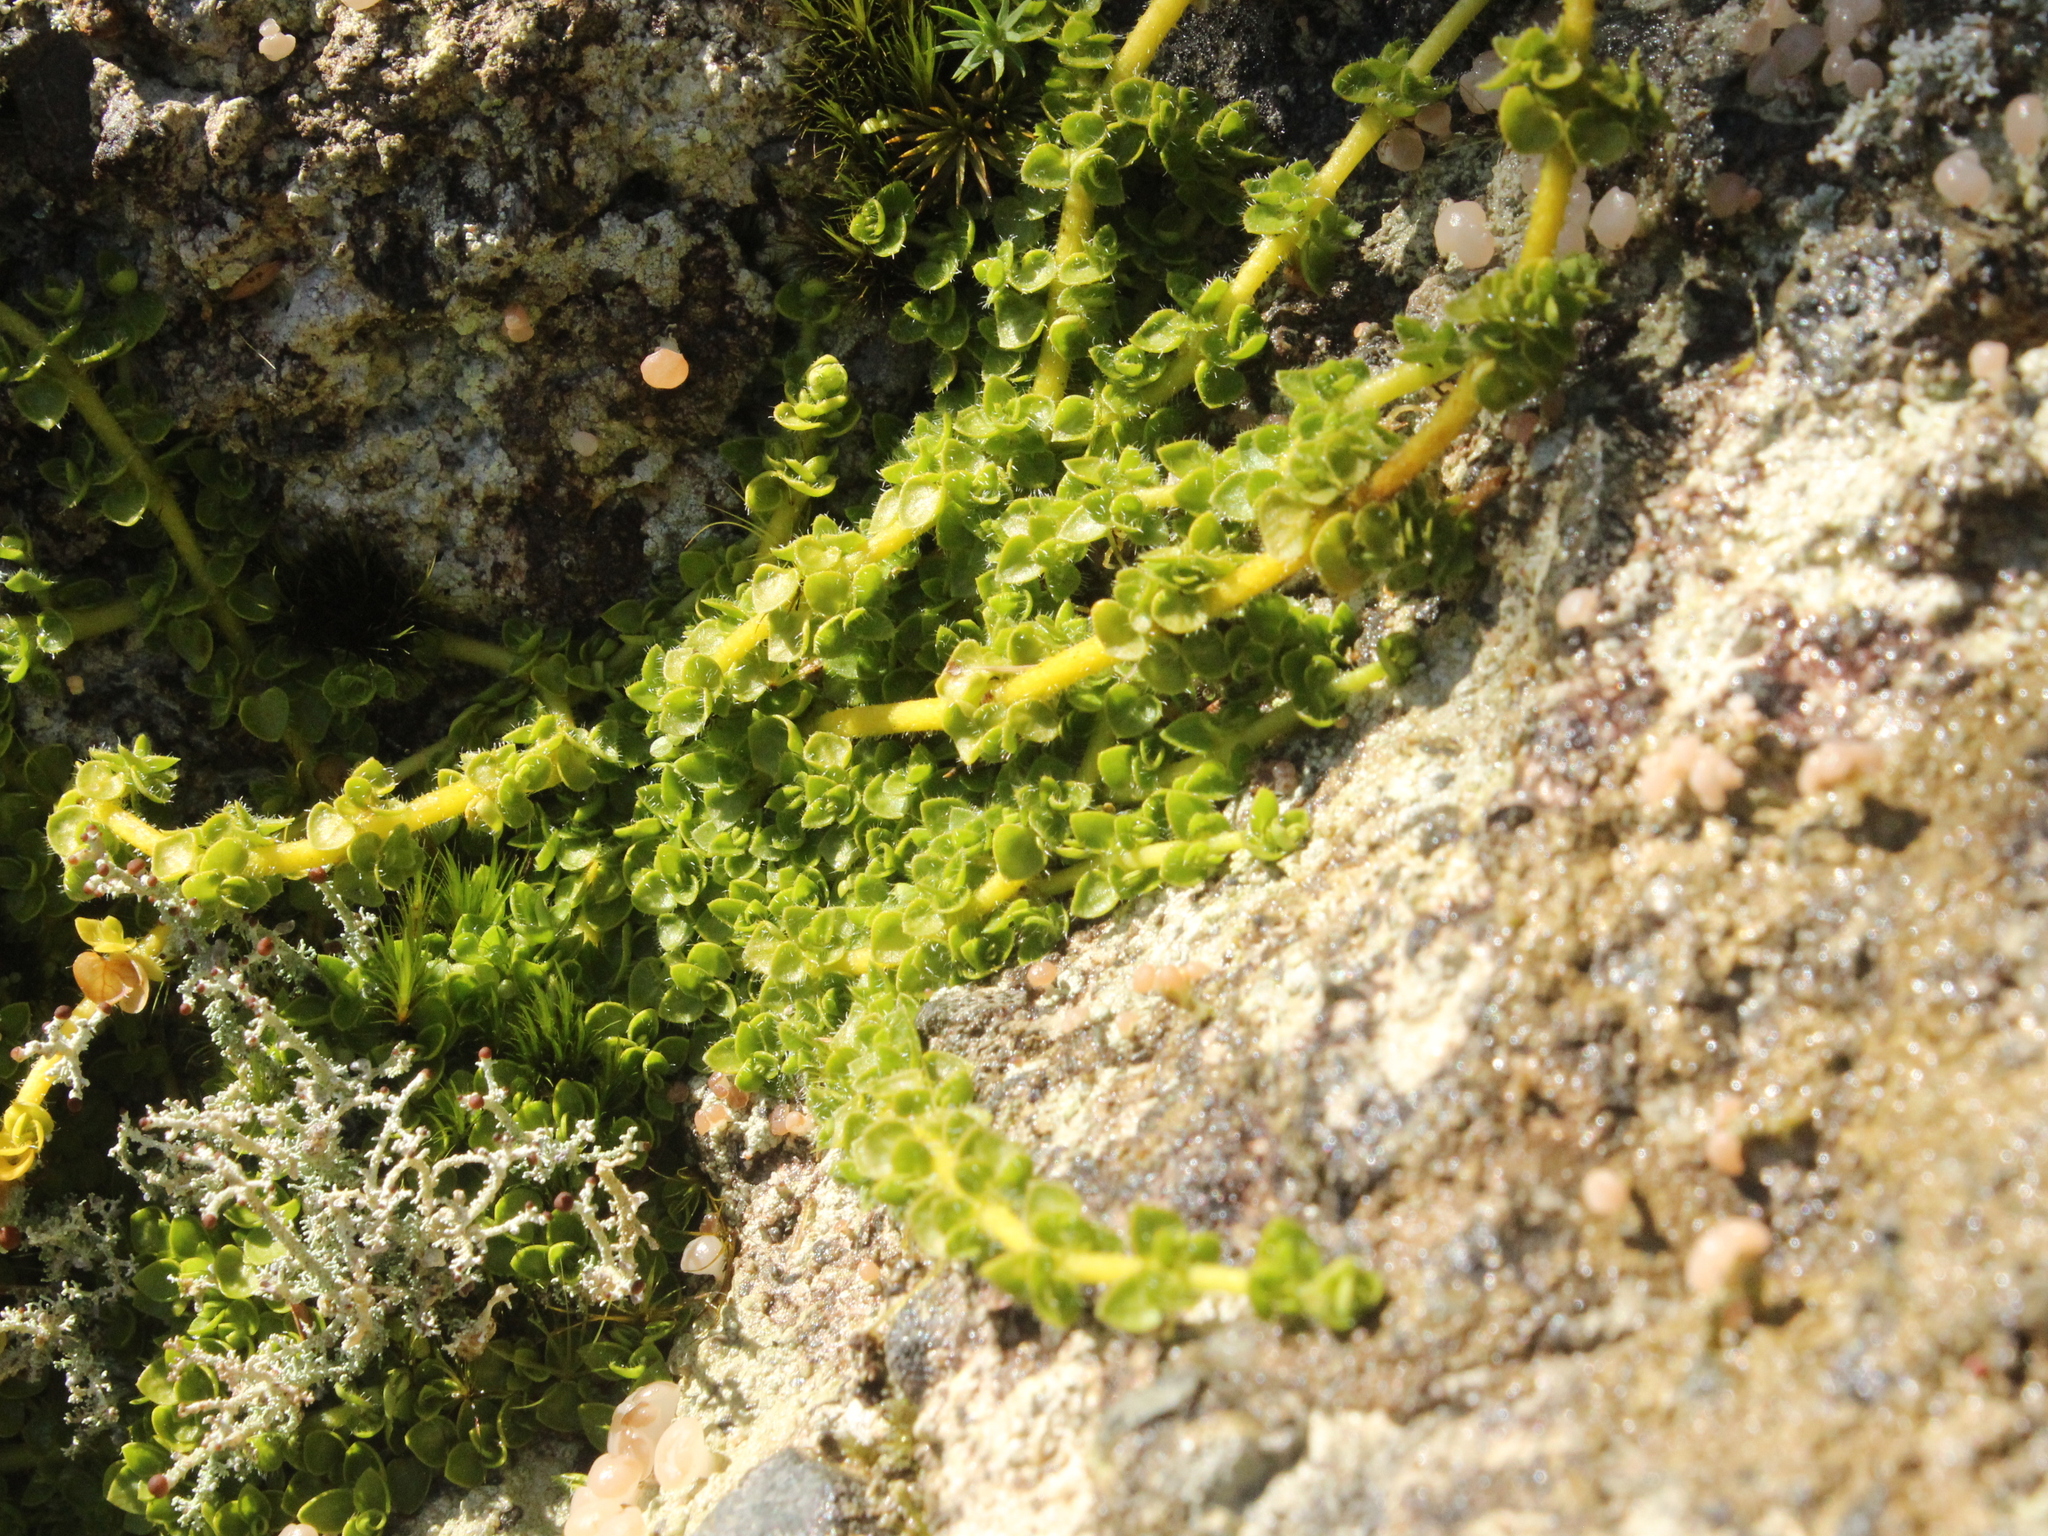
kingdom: Plantae
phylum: Tracheophyta
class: Magnoliopsida
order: Gentianales
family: Rubiaceae
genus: Nertera
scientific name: Nertera ciliata
